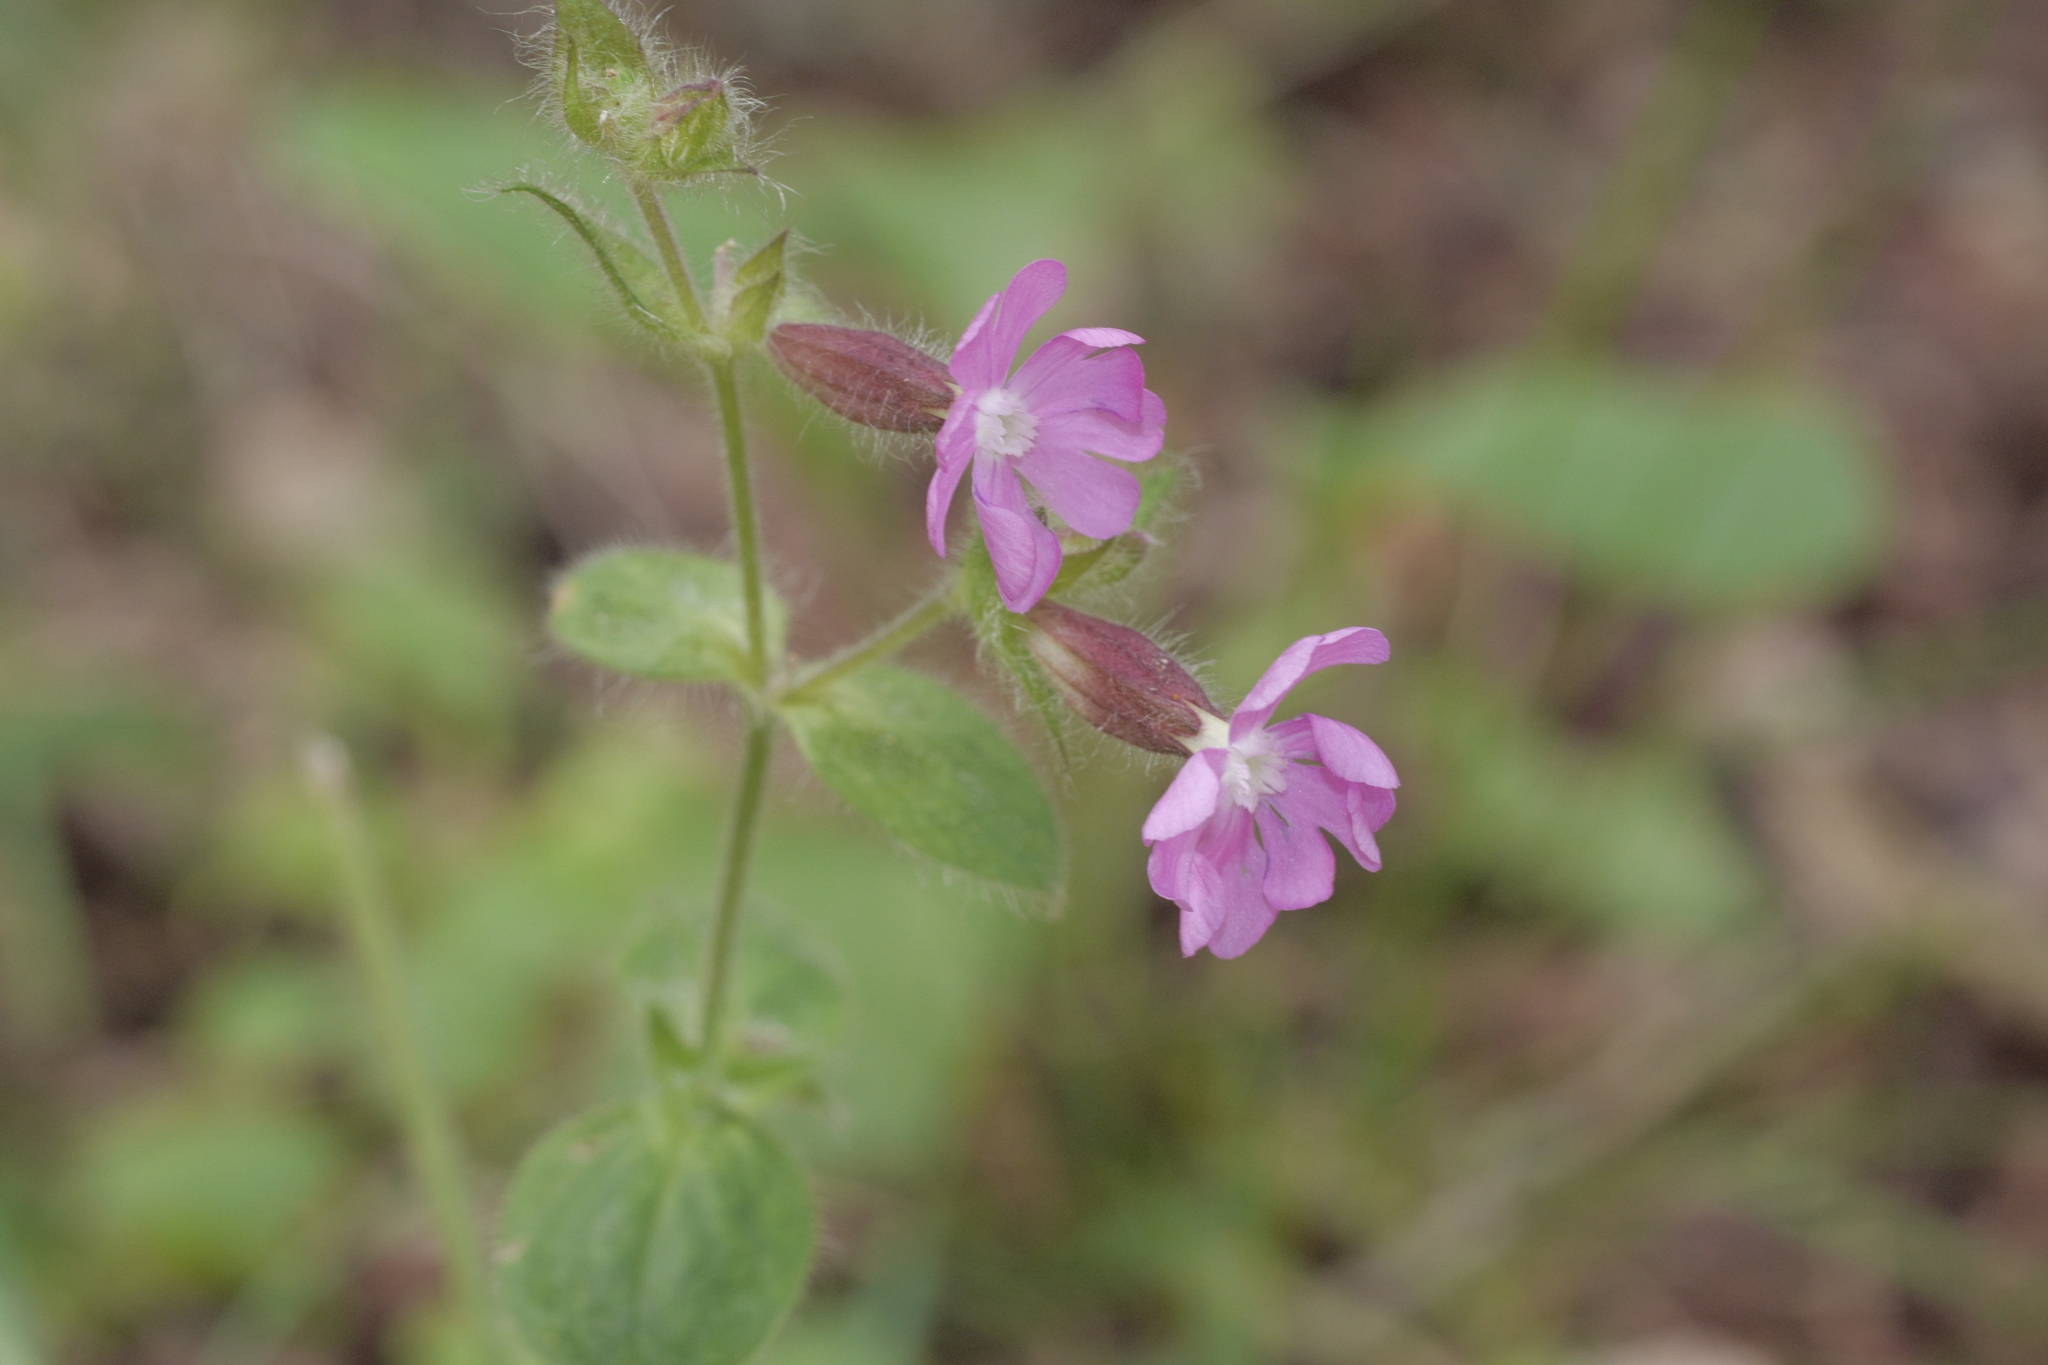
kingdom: Plantae
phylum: Tracheophyta
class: Magnoliopsida
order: Caryophyllales
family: Caryophyllaceae
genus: Silene
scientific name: Silene dioica
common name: Red campion
